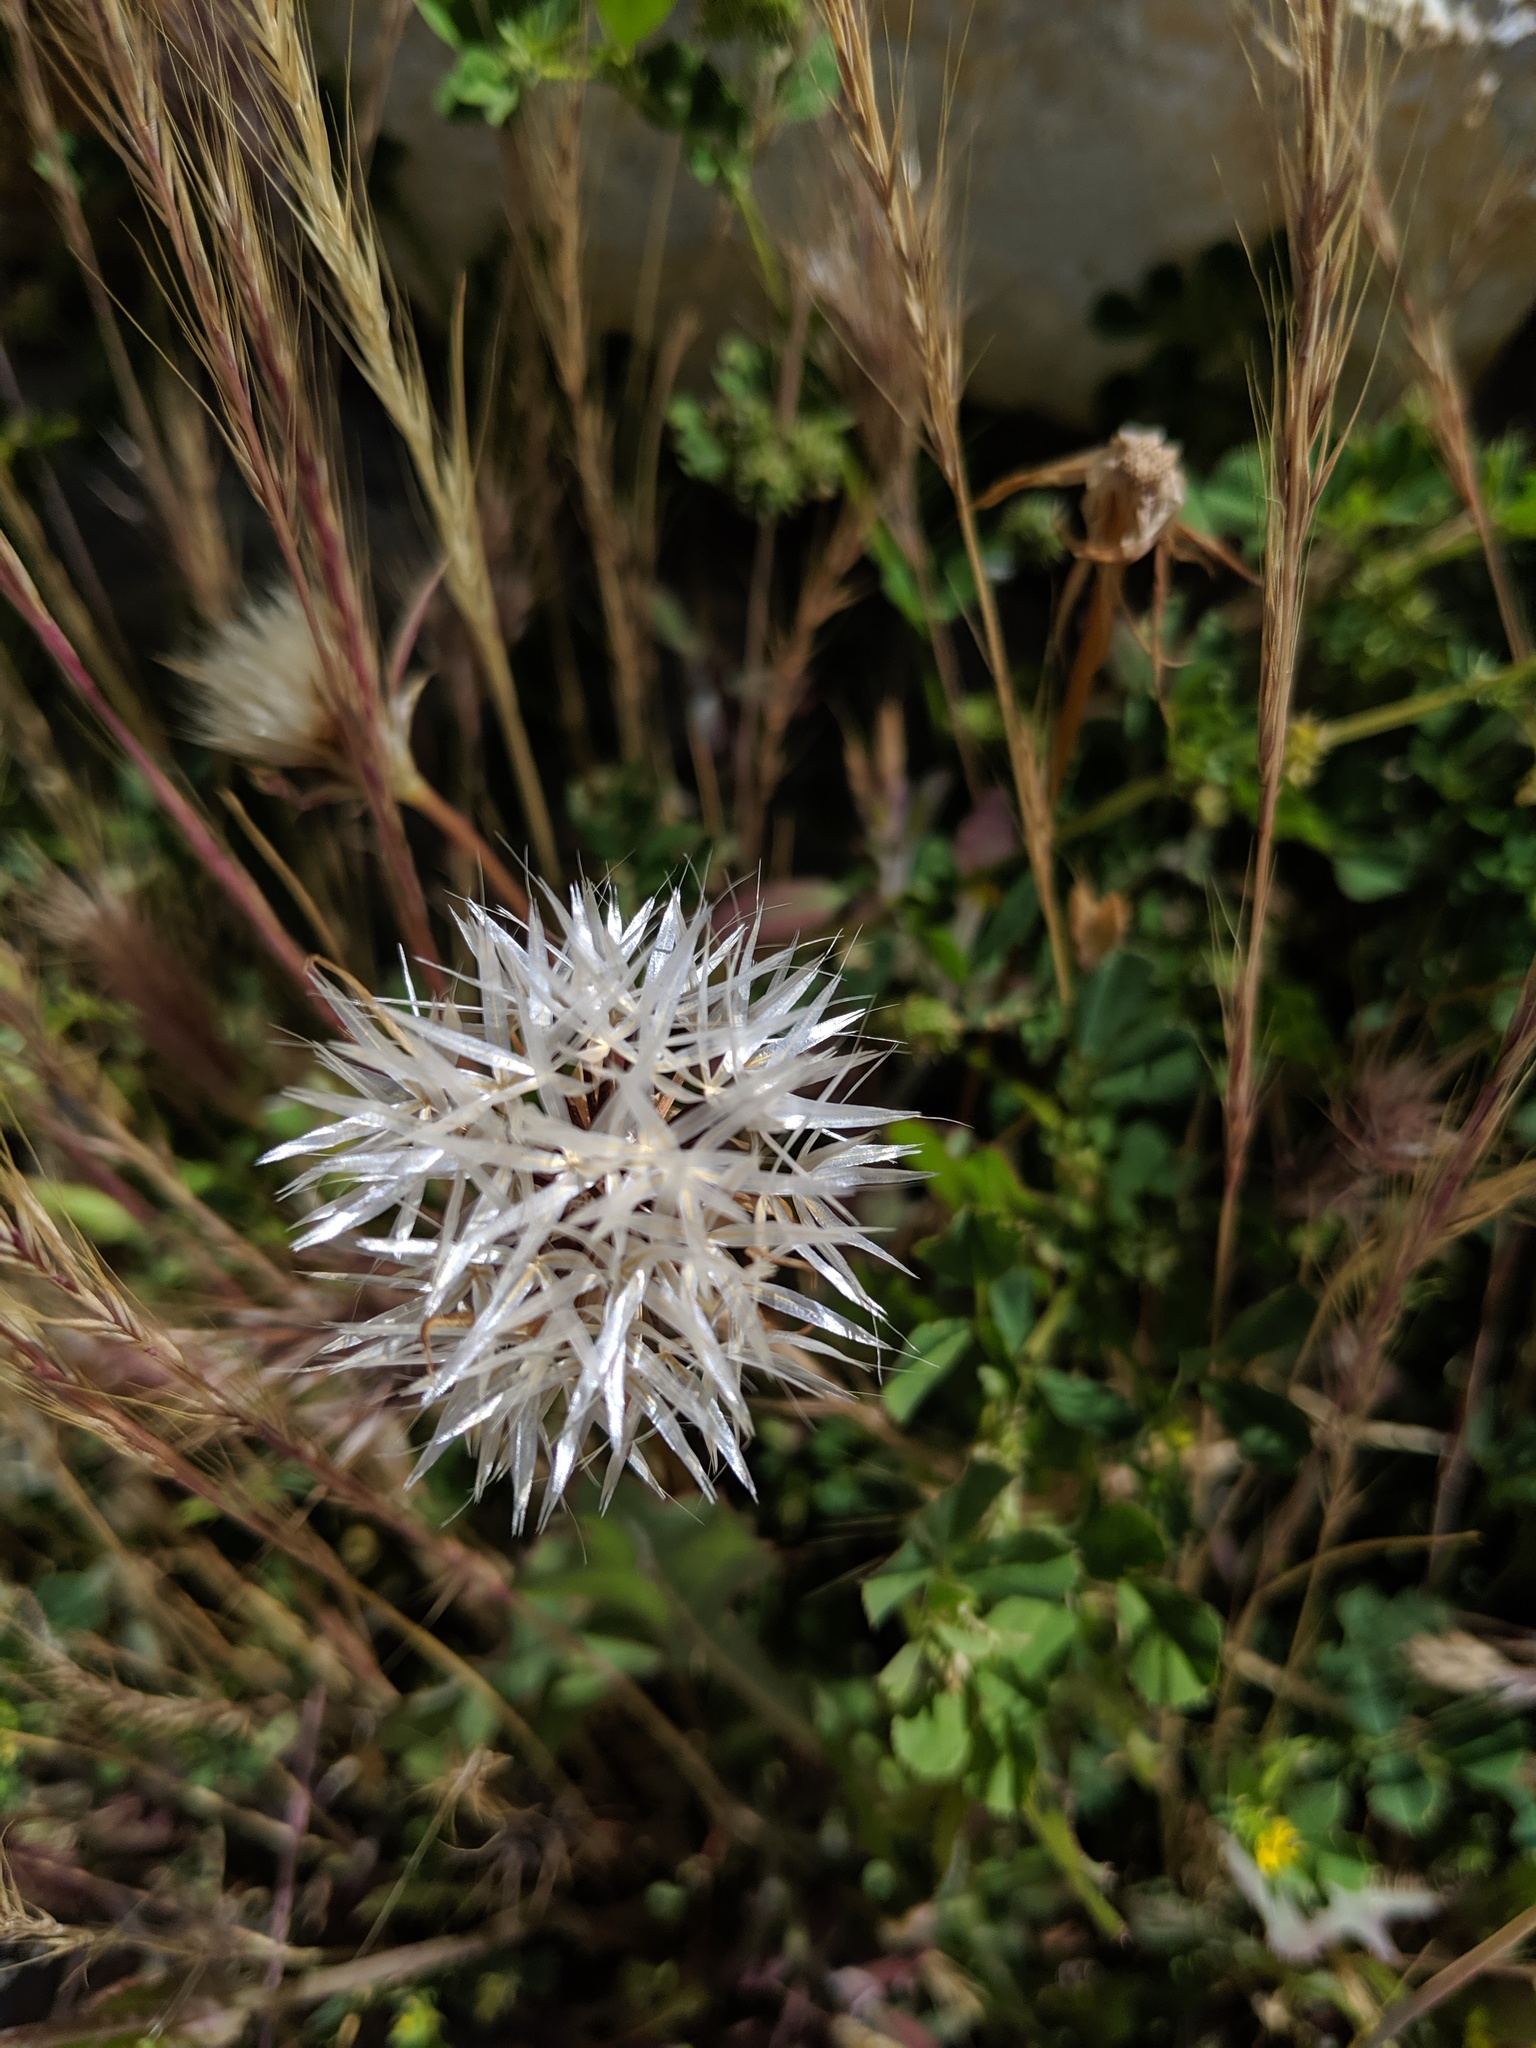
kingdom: Plantae
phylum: Tracheophyta
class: Magnoliopsida
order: Asterales
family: Asteraceae
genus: Microseris
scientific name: Microseris lindleyi
